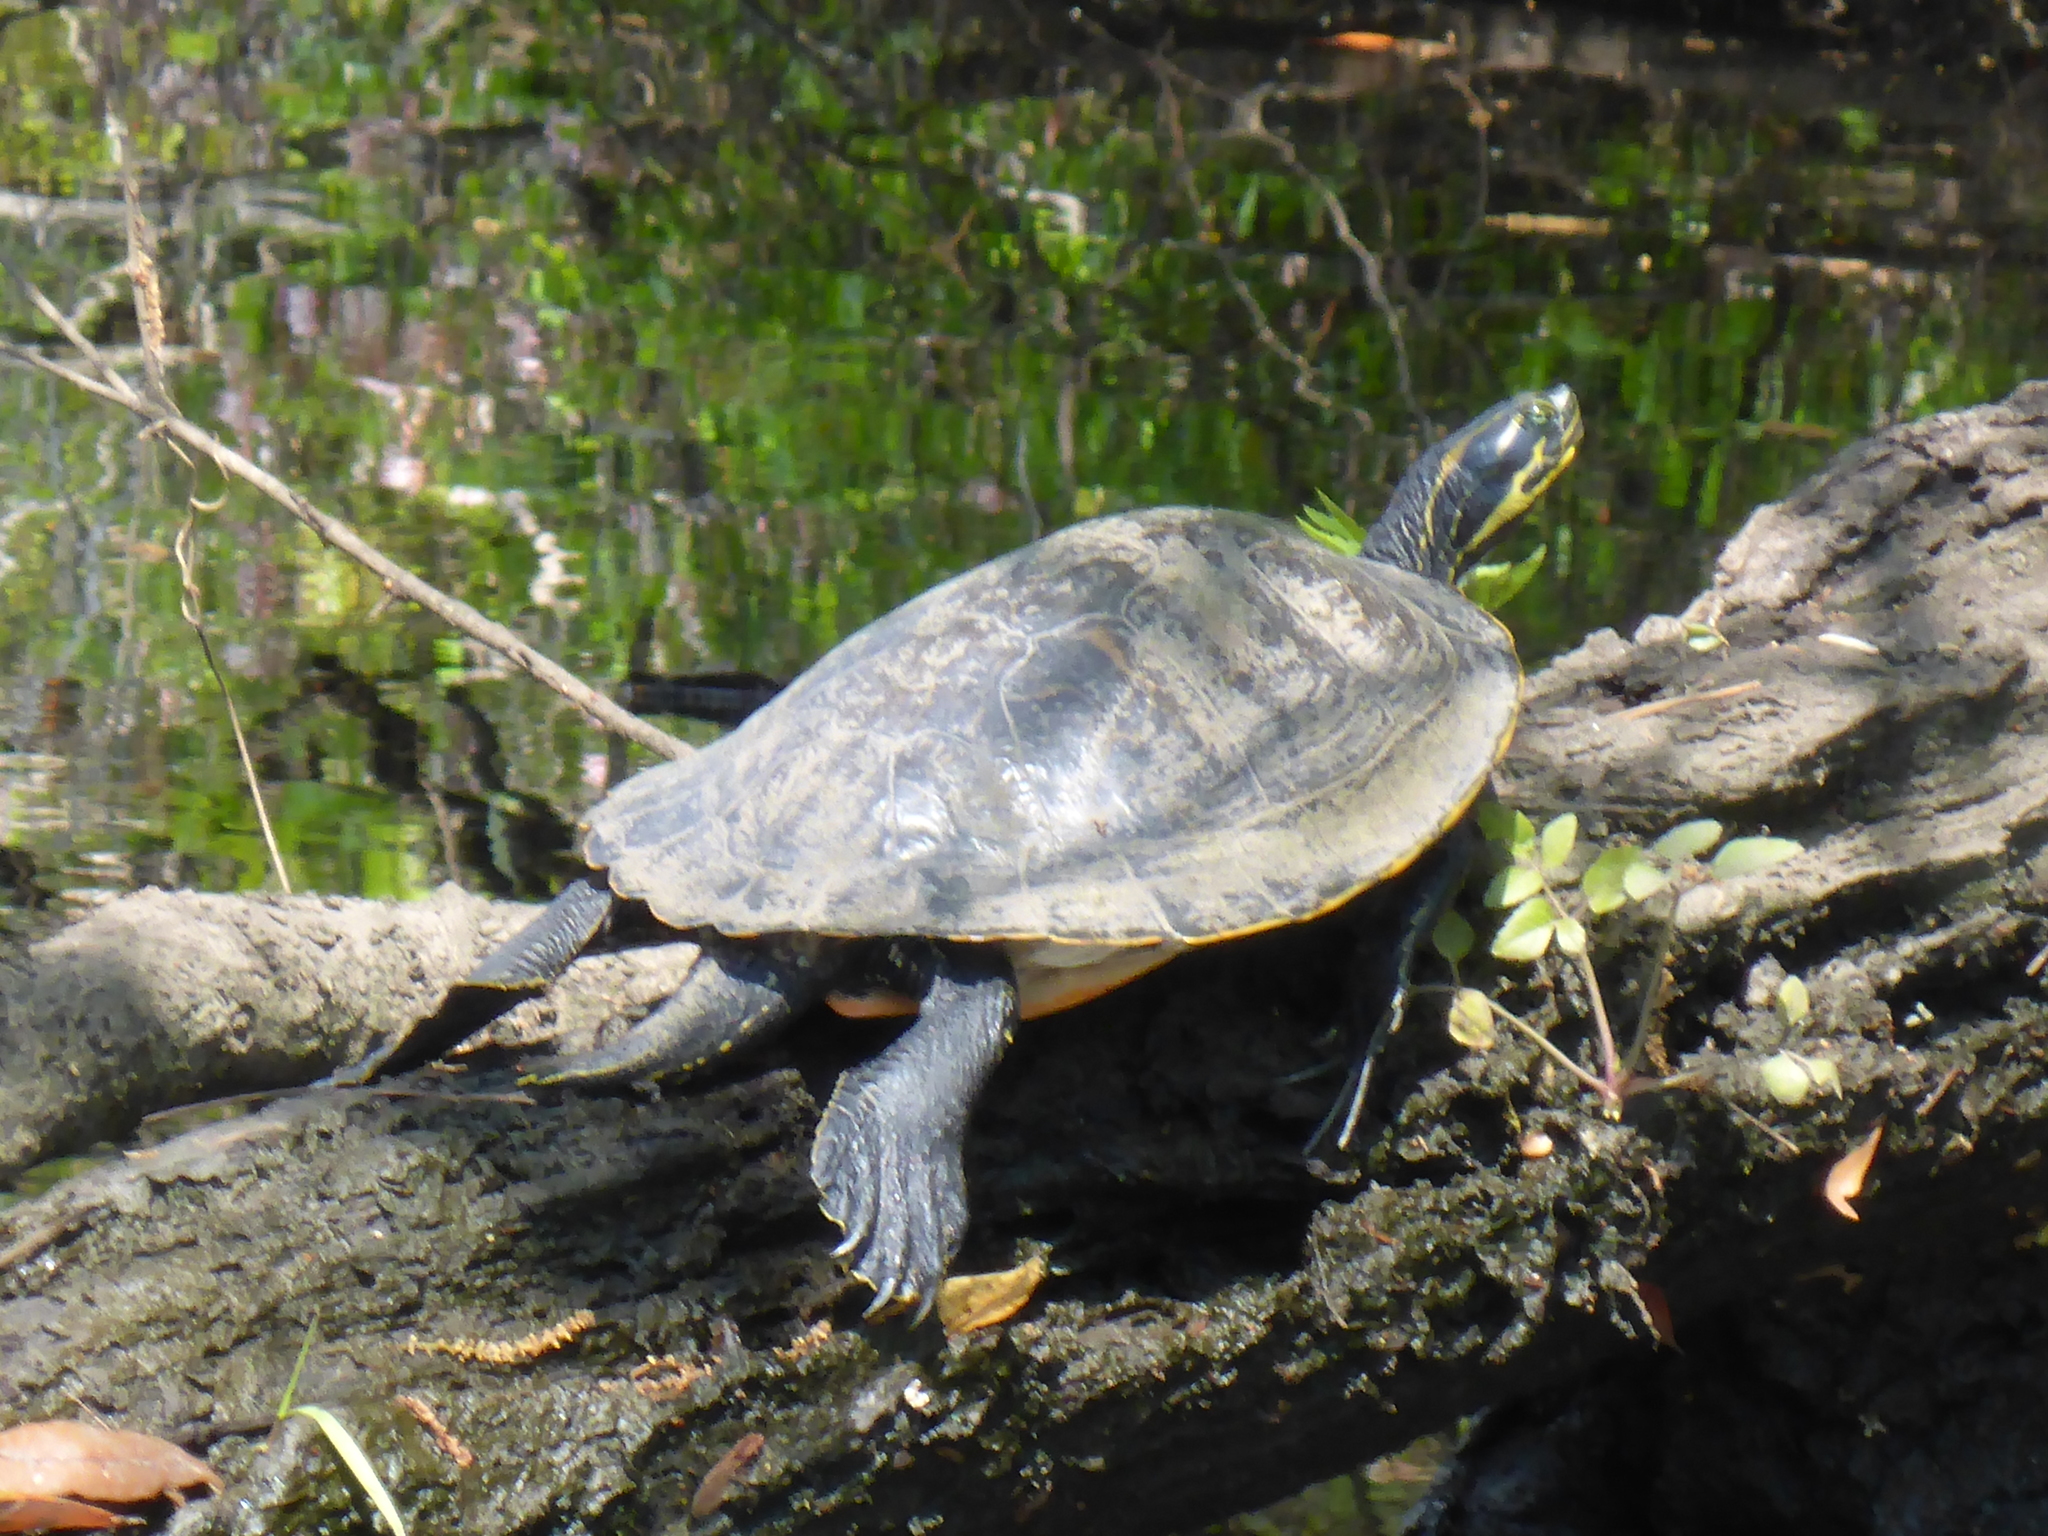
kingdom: Animalia
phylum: Chordata
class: Testudines
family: Emydidae
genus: Pseudemys
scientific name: Pseudemys concinna
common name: Eastern river cooter
